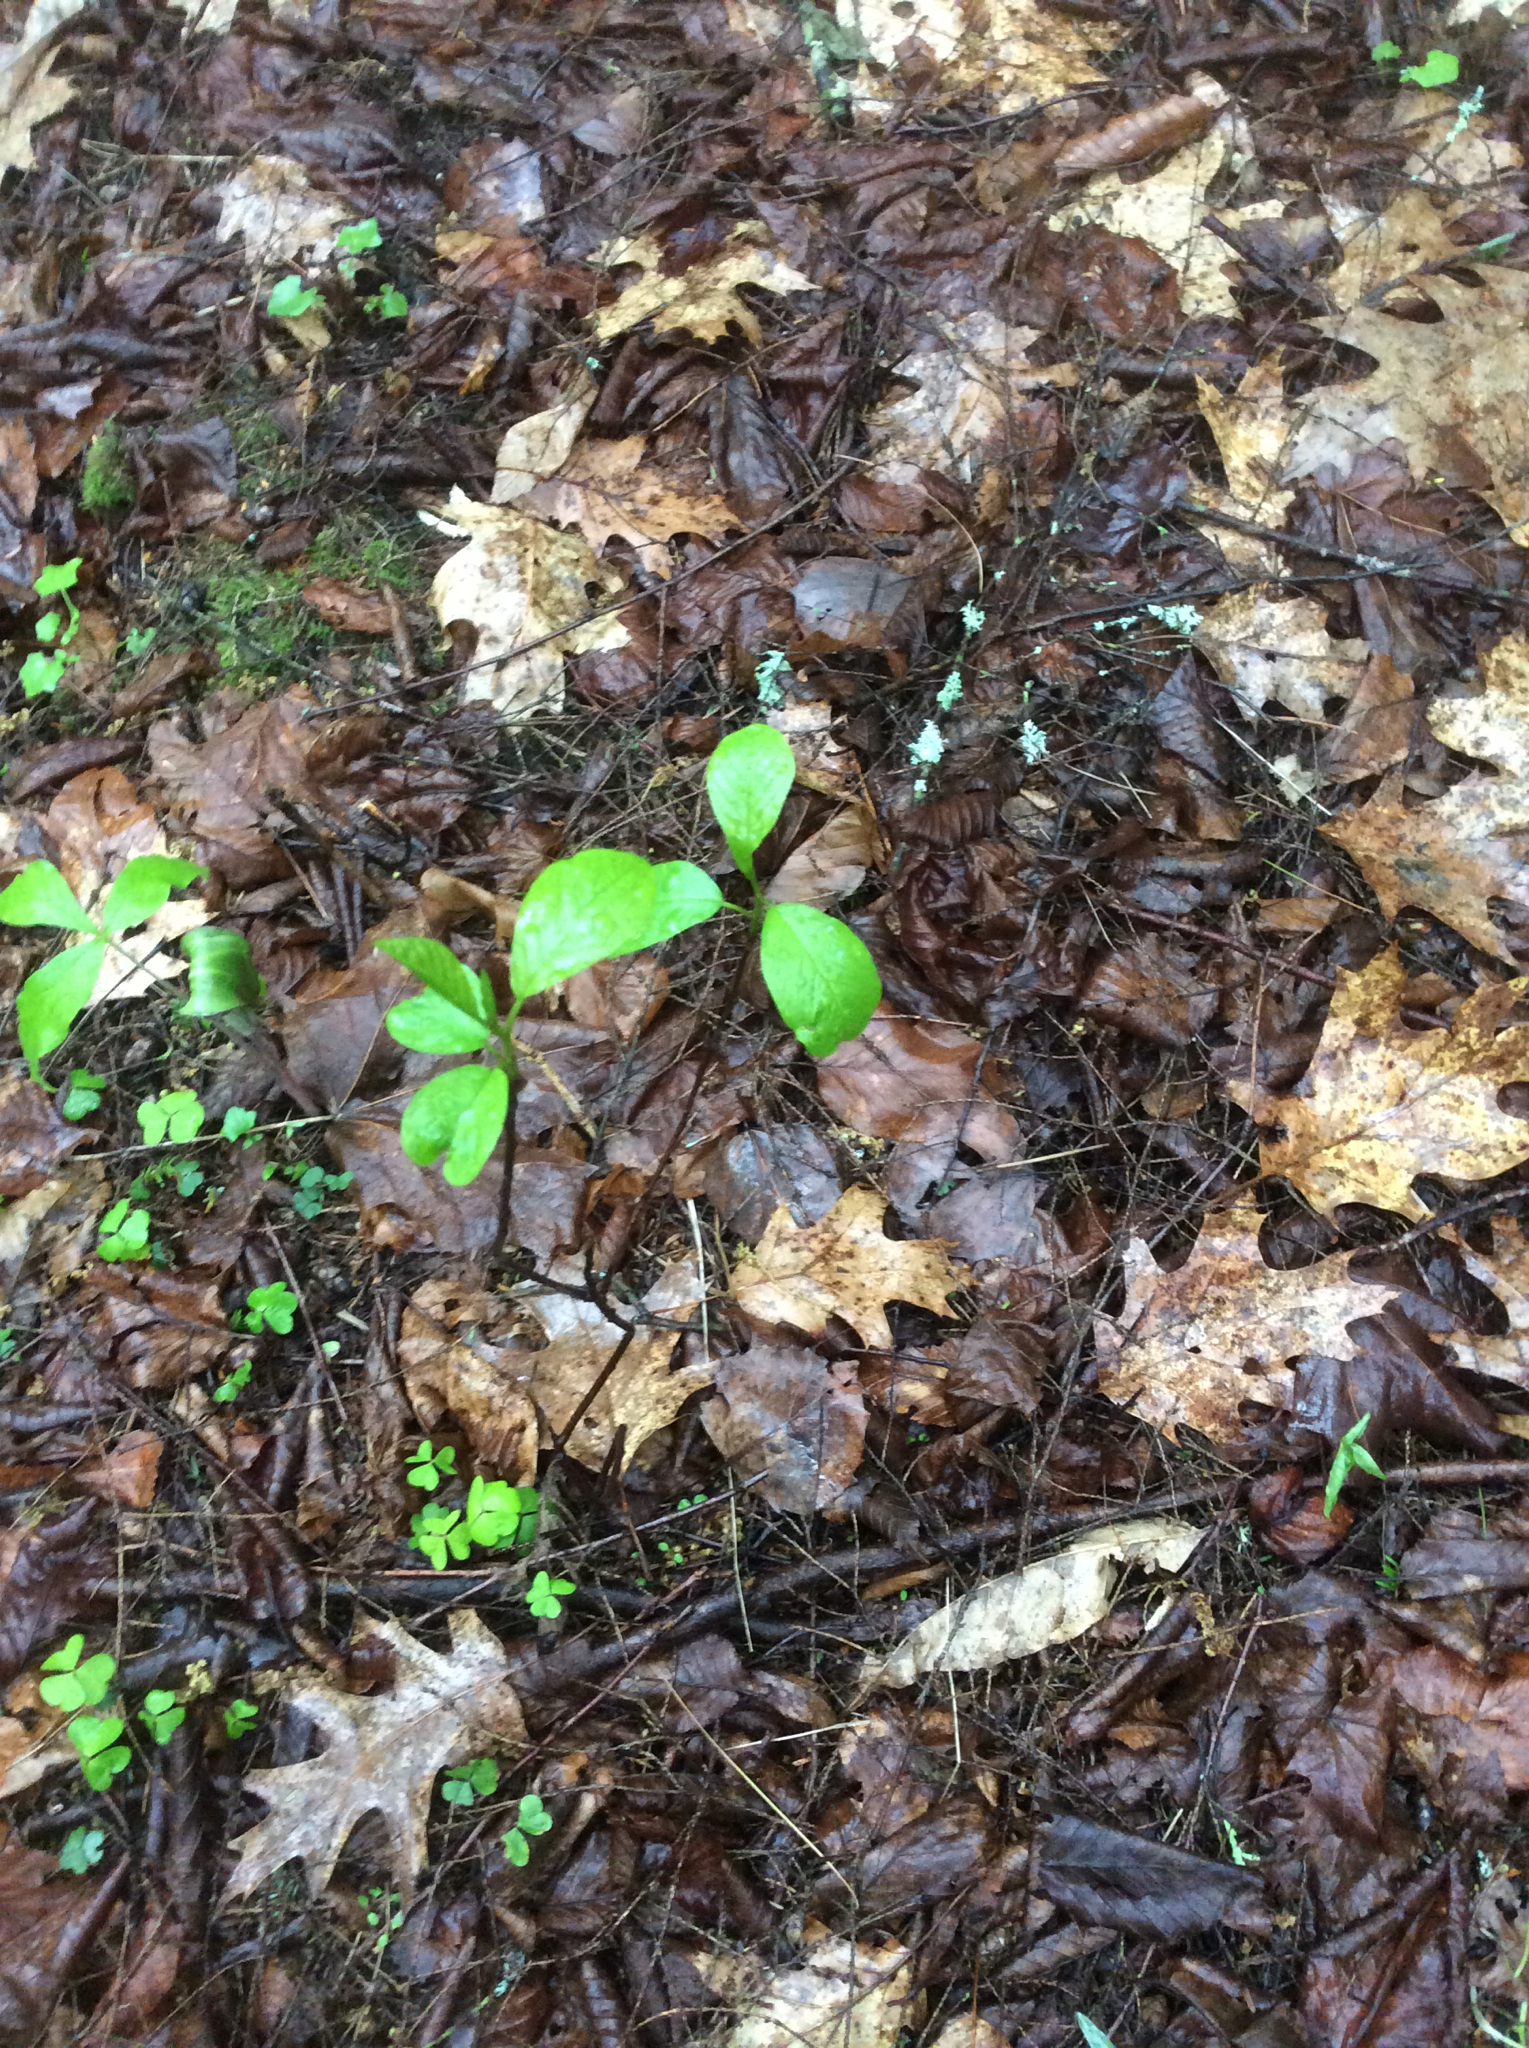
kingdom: Plantae
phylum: Tracheophyta
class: Magnoliopsida
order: Rosales
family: Rhamnaceae
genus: Frangula
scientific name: Frangula alnus
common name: Alder buckthorn
